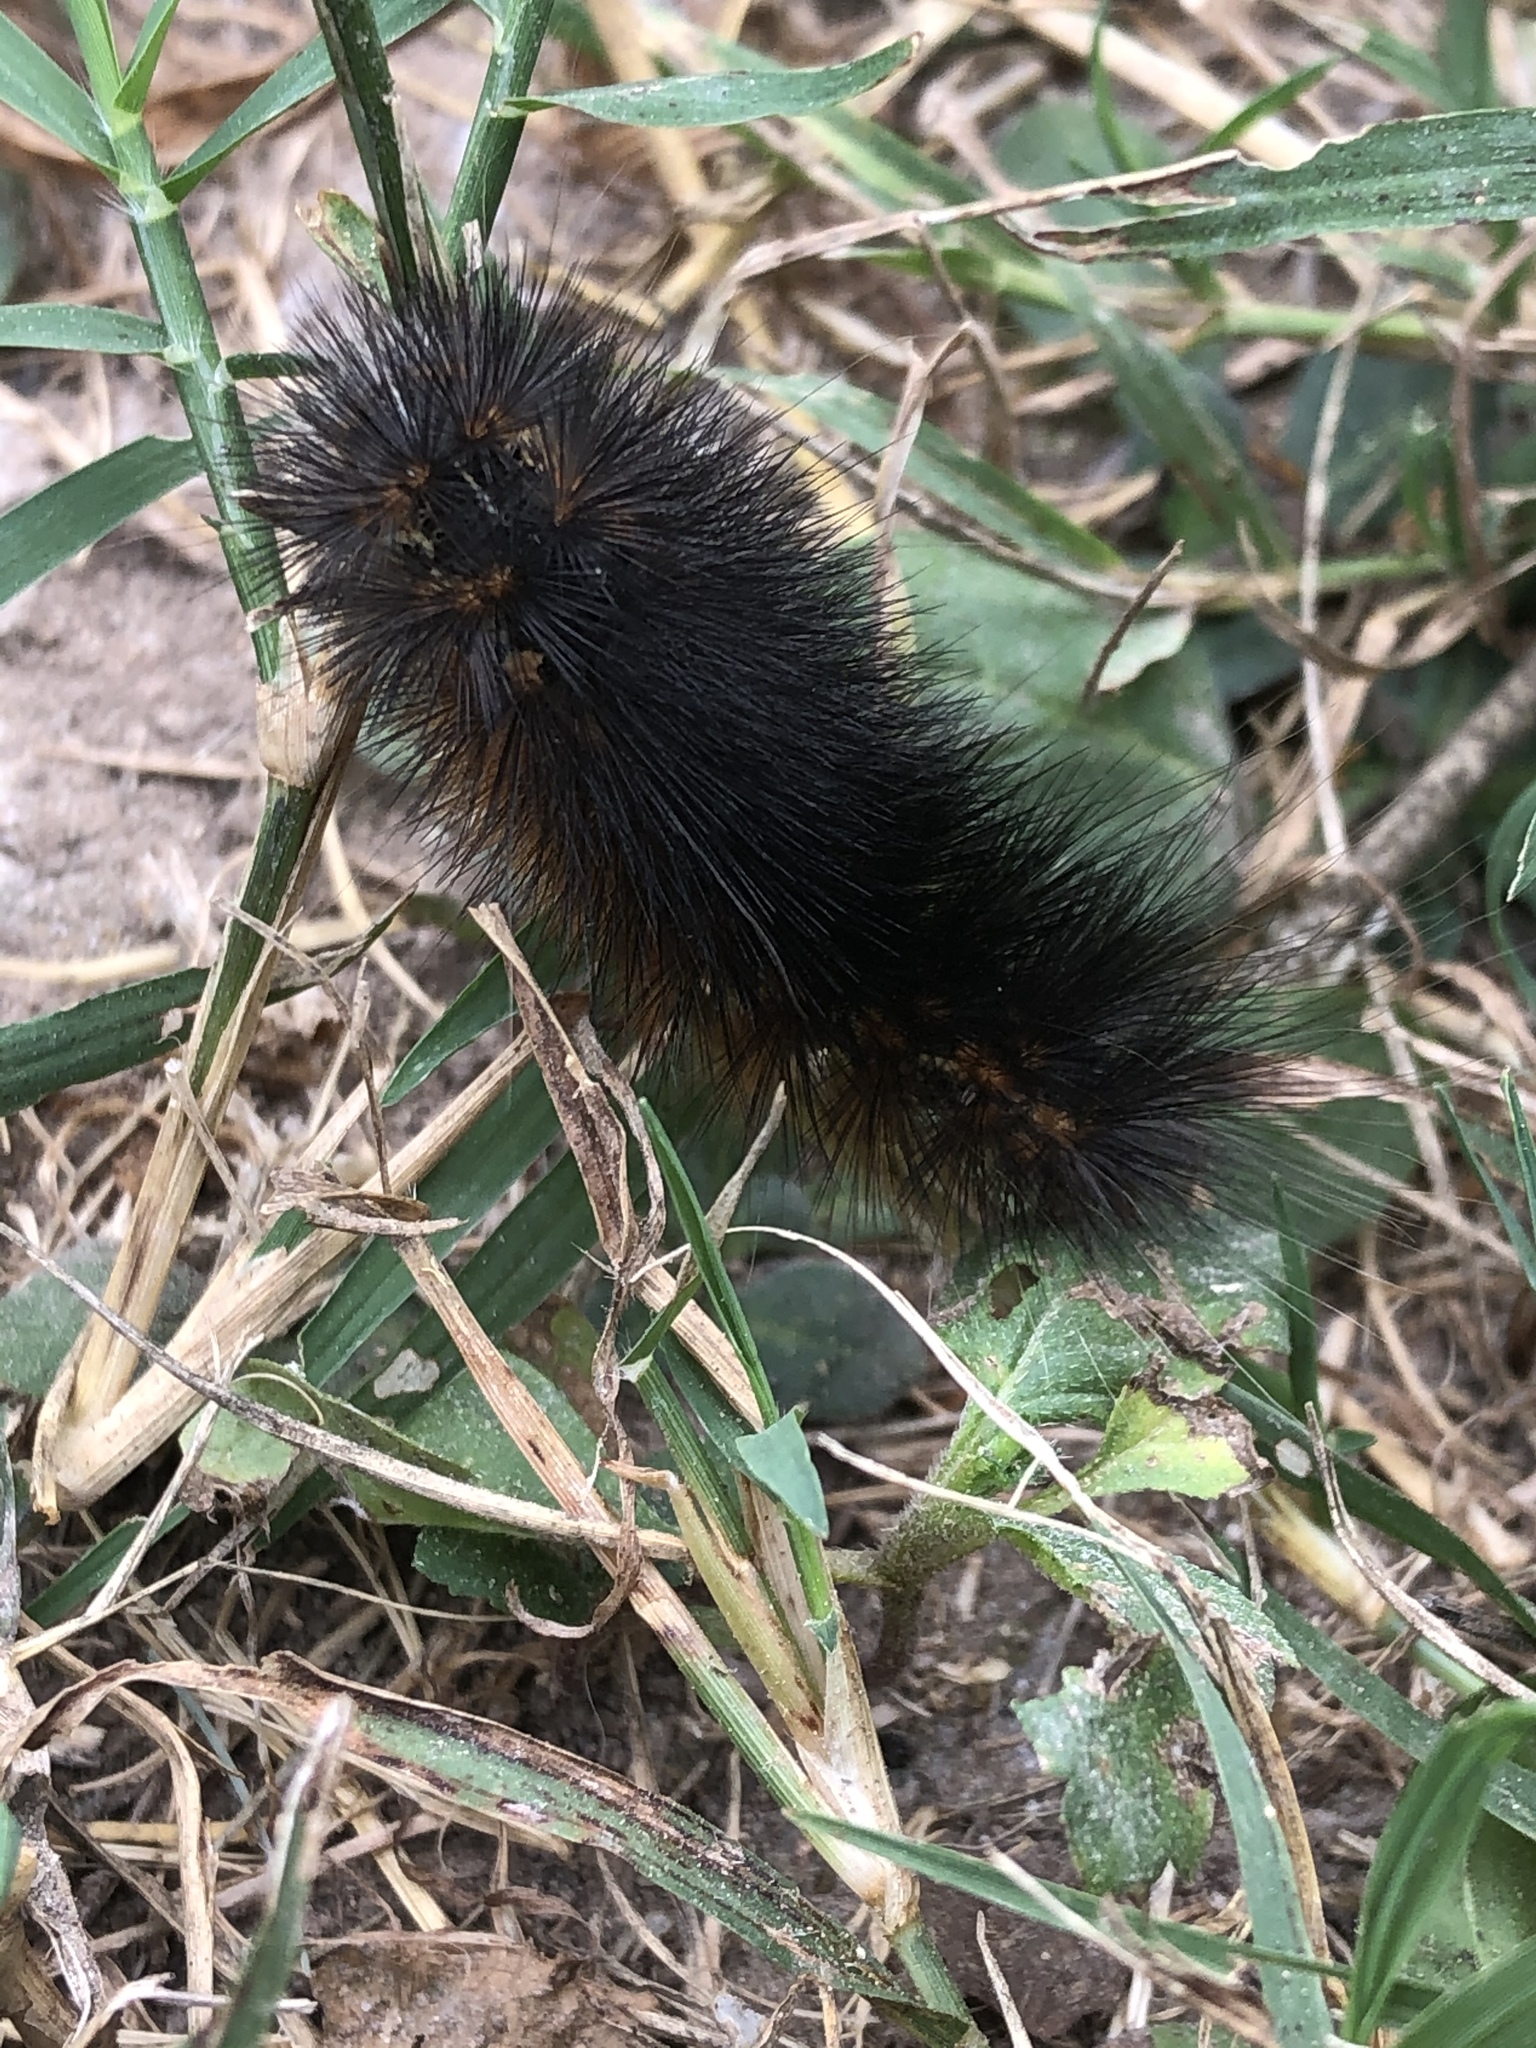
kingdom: Animalia
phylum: Arthropoda
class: Insecta
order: Lepidoptera
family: Erebidae
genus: Estigmene
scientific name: Estigmene acrea
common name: Salt marsh moth
